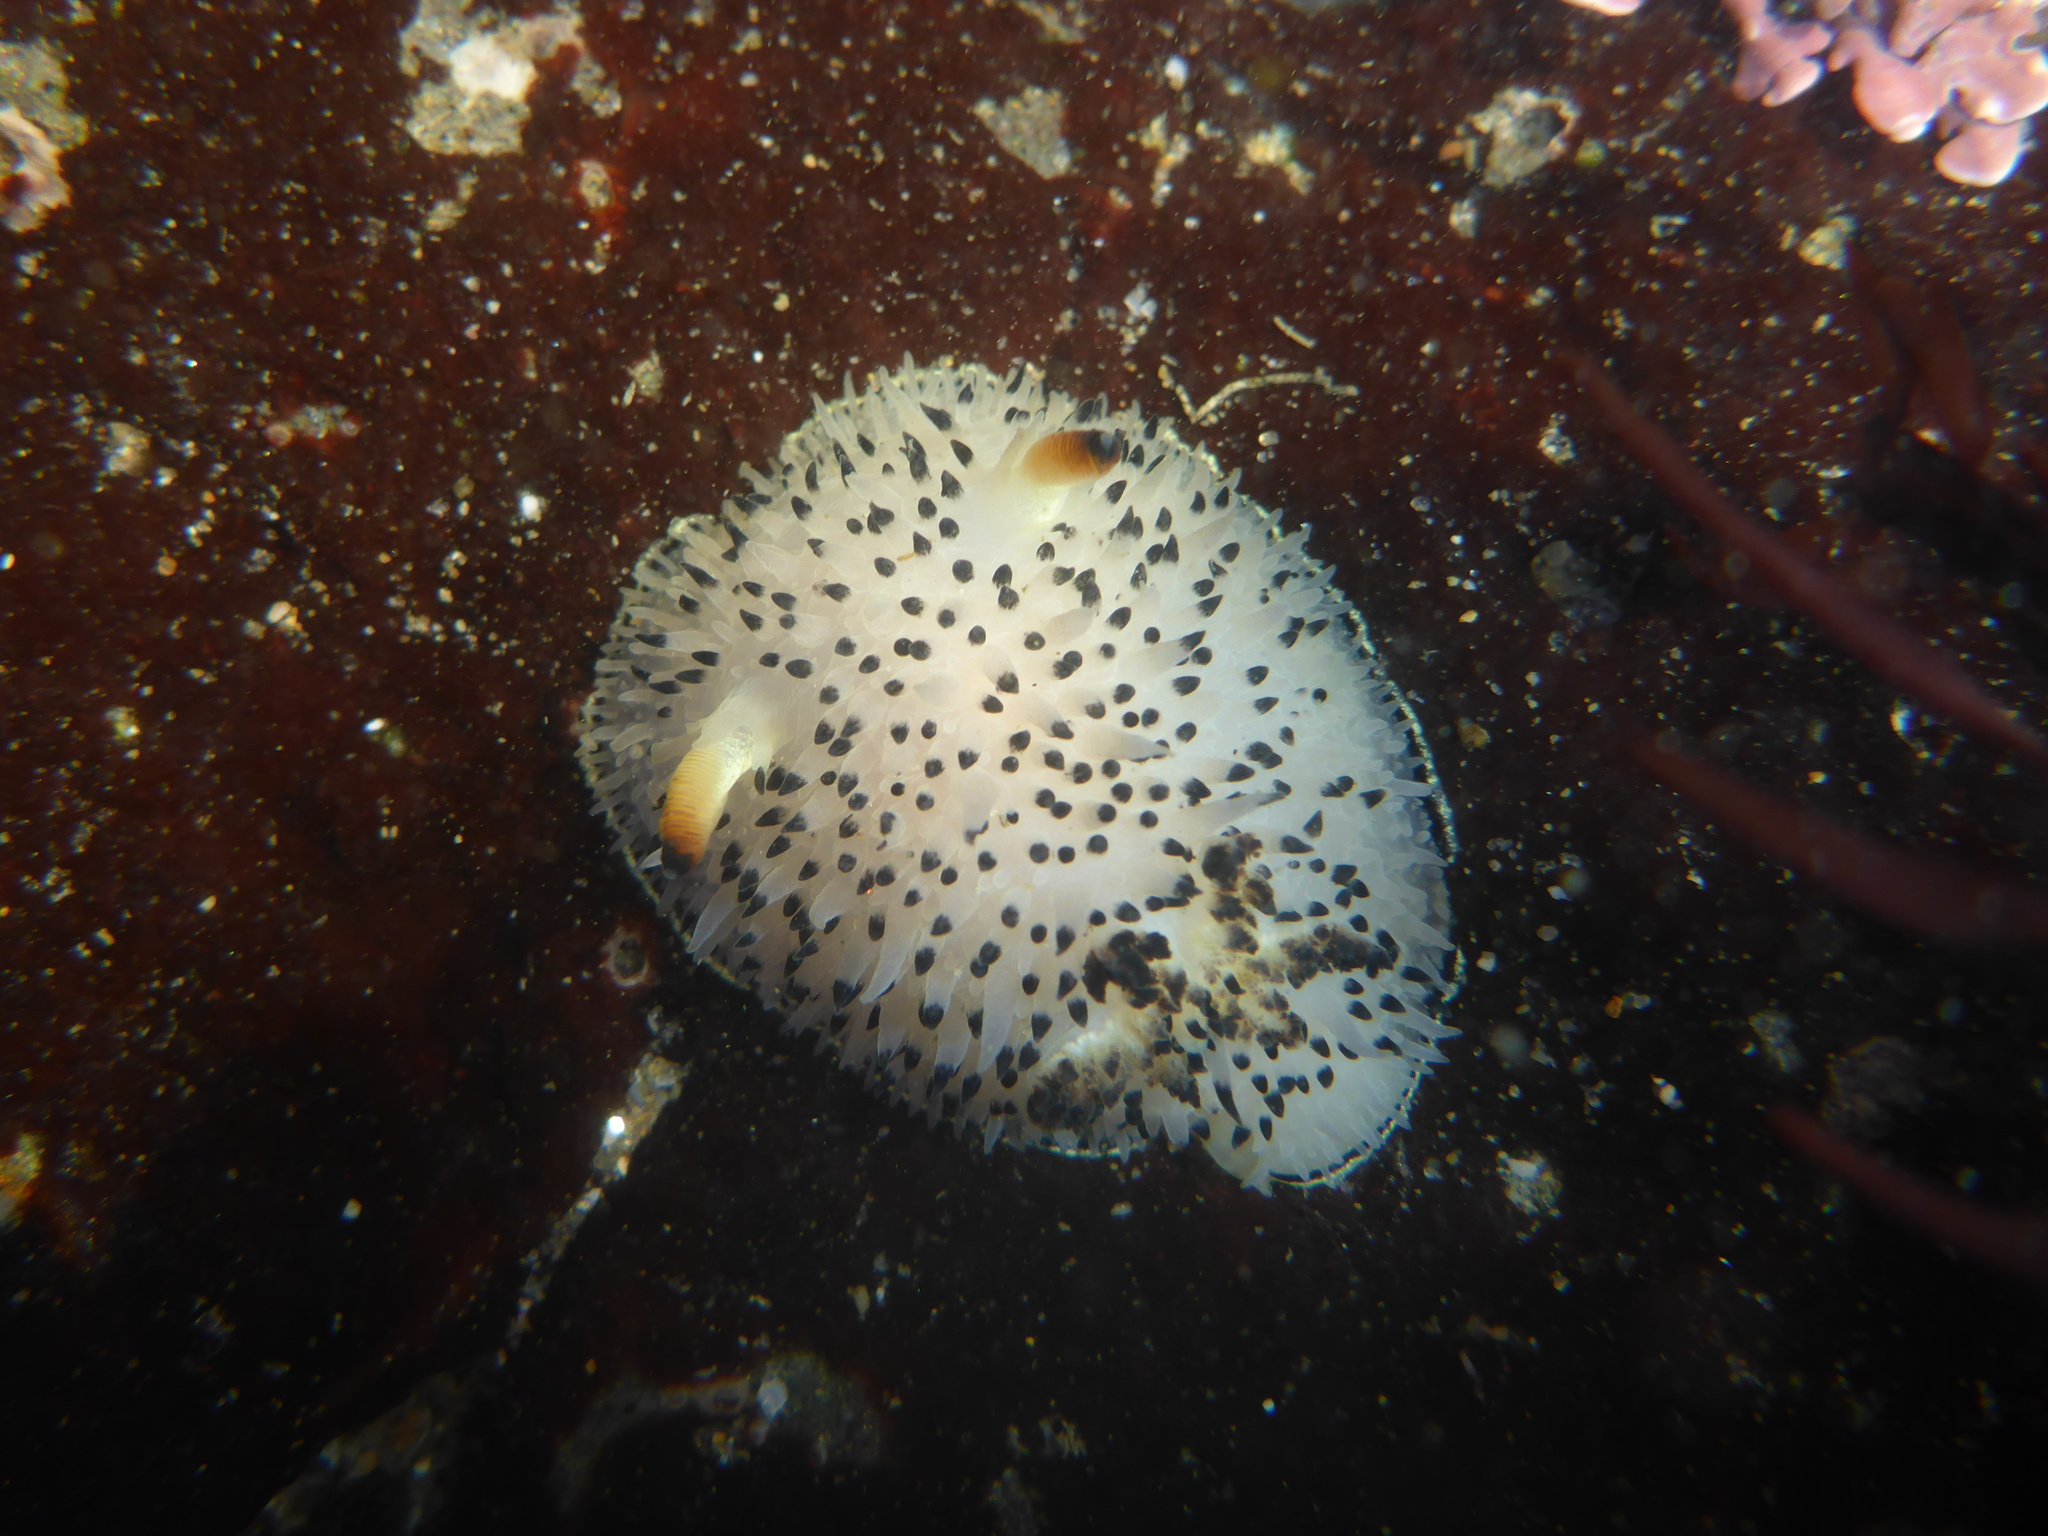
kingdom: Animalia
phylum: Mollusca
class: Gastropoda
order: Nudibranchia
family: Onchidorididae
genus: Acanthodoris
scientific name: Acanthodoris rhodoceras
